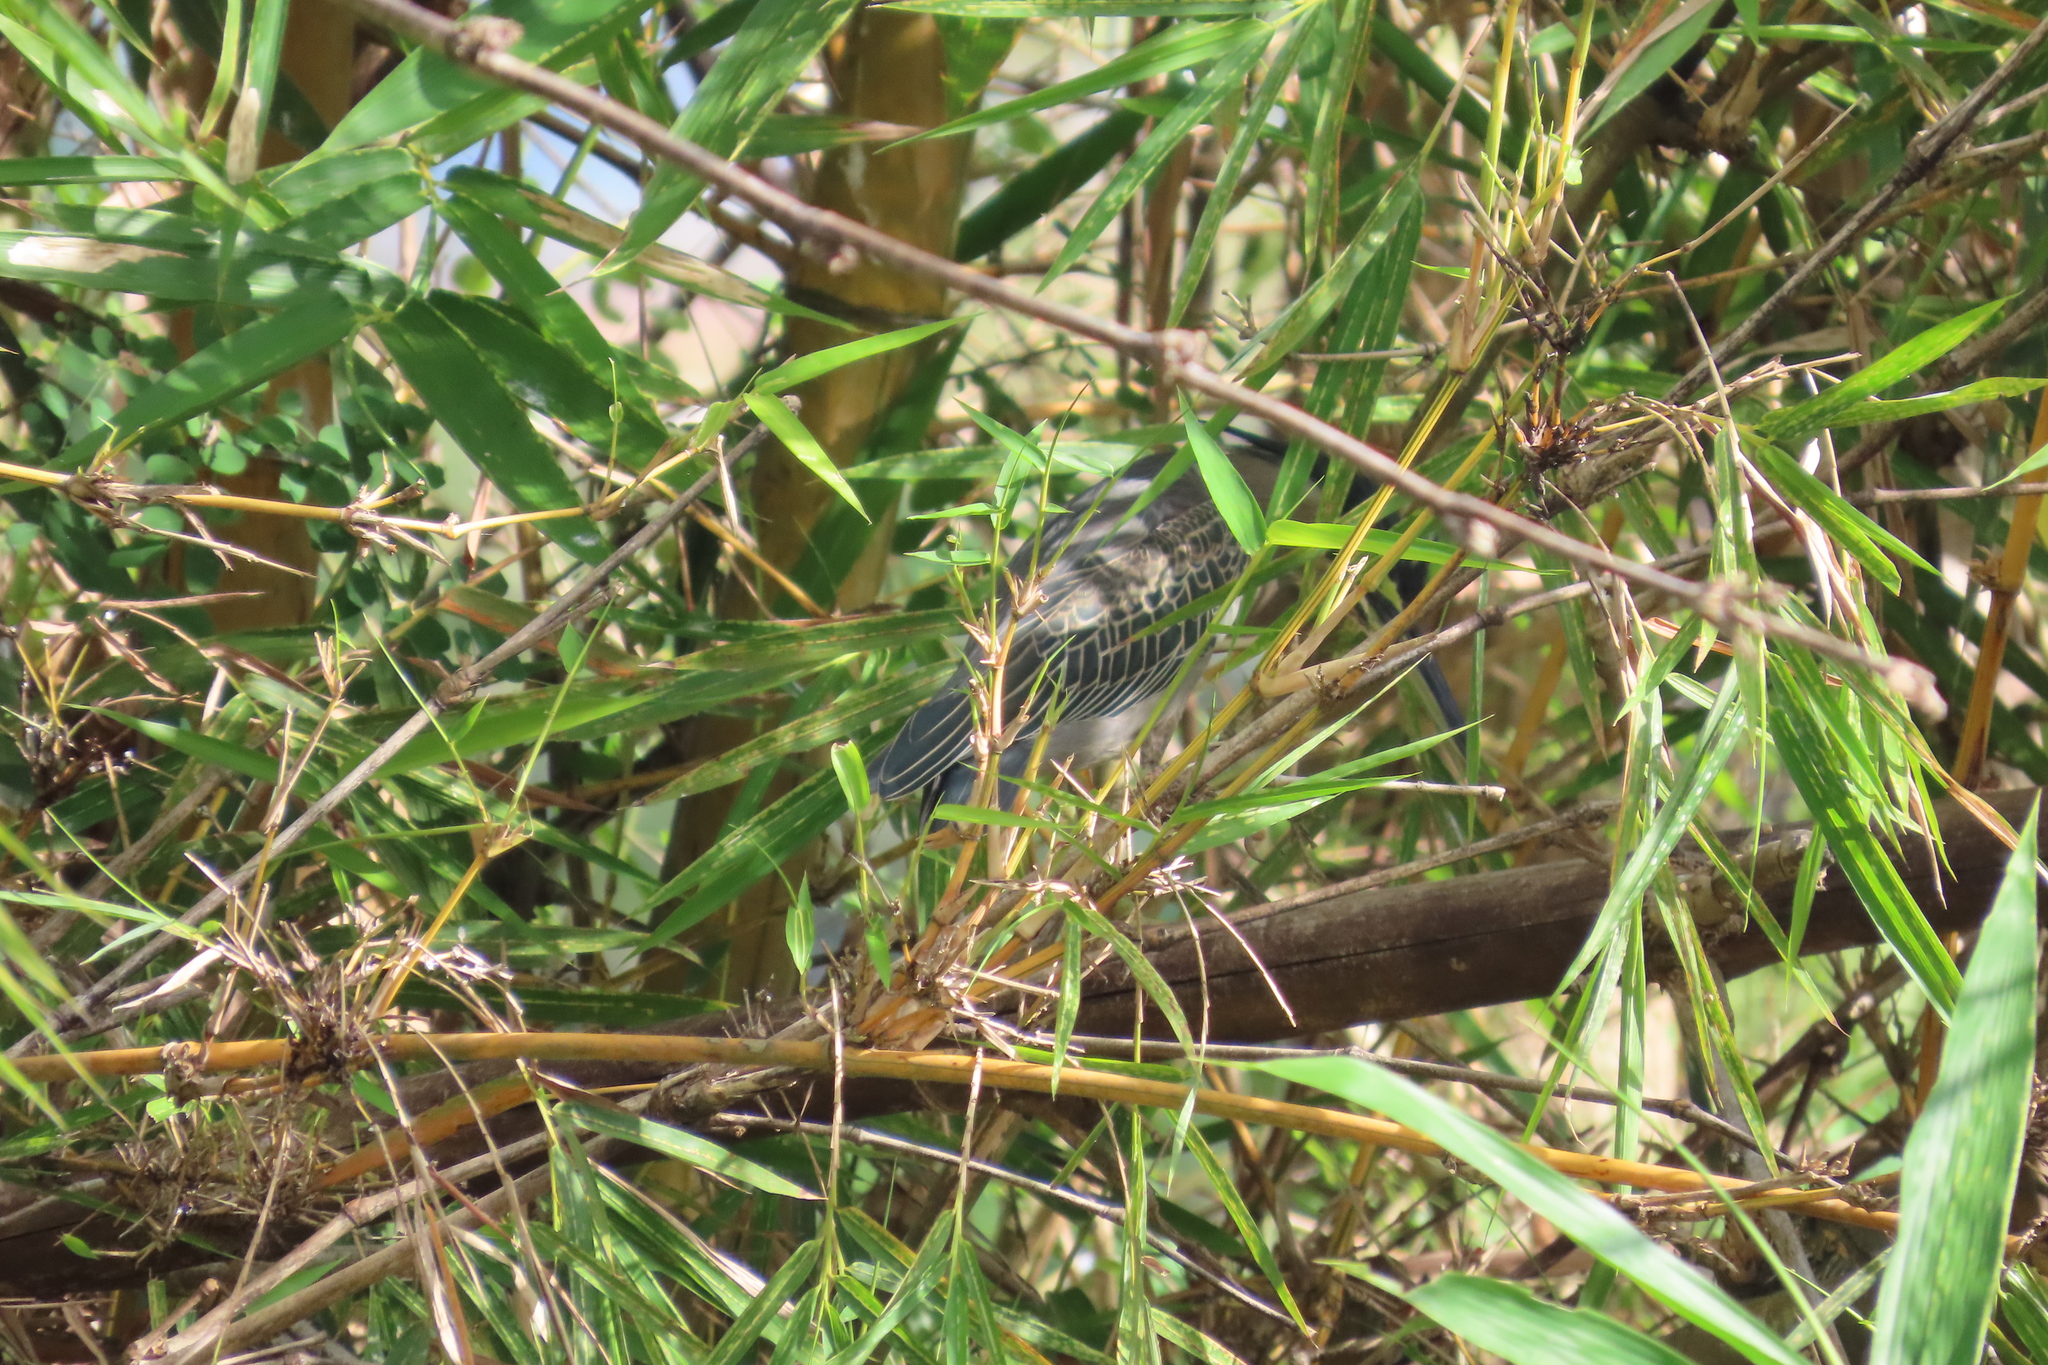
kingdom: Animalia
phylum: Chordata
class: Aves
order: Pelecaniformes
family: Ardeidae
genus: Butorides
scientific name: Butorides striata
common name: Striated heron
